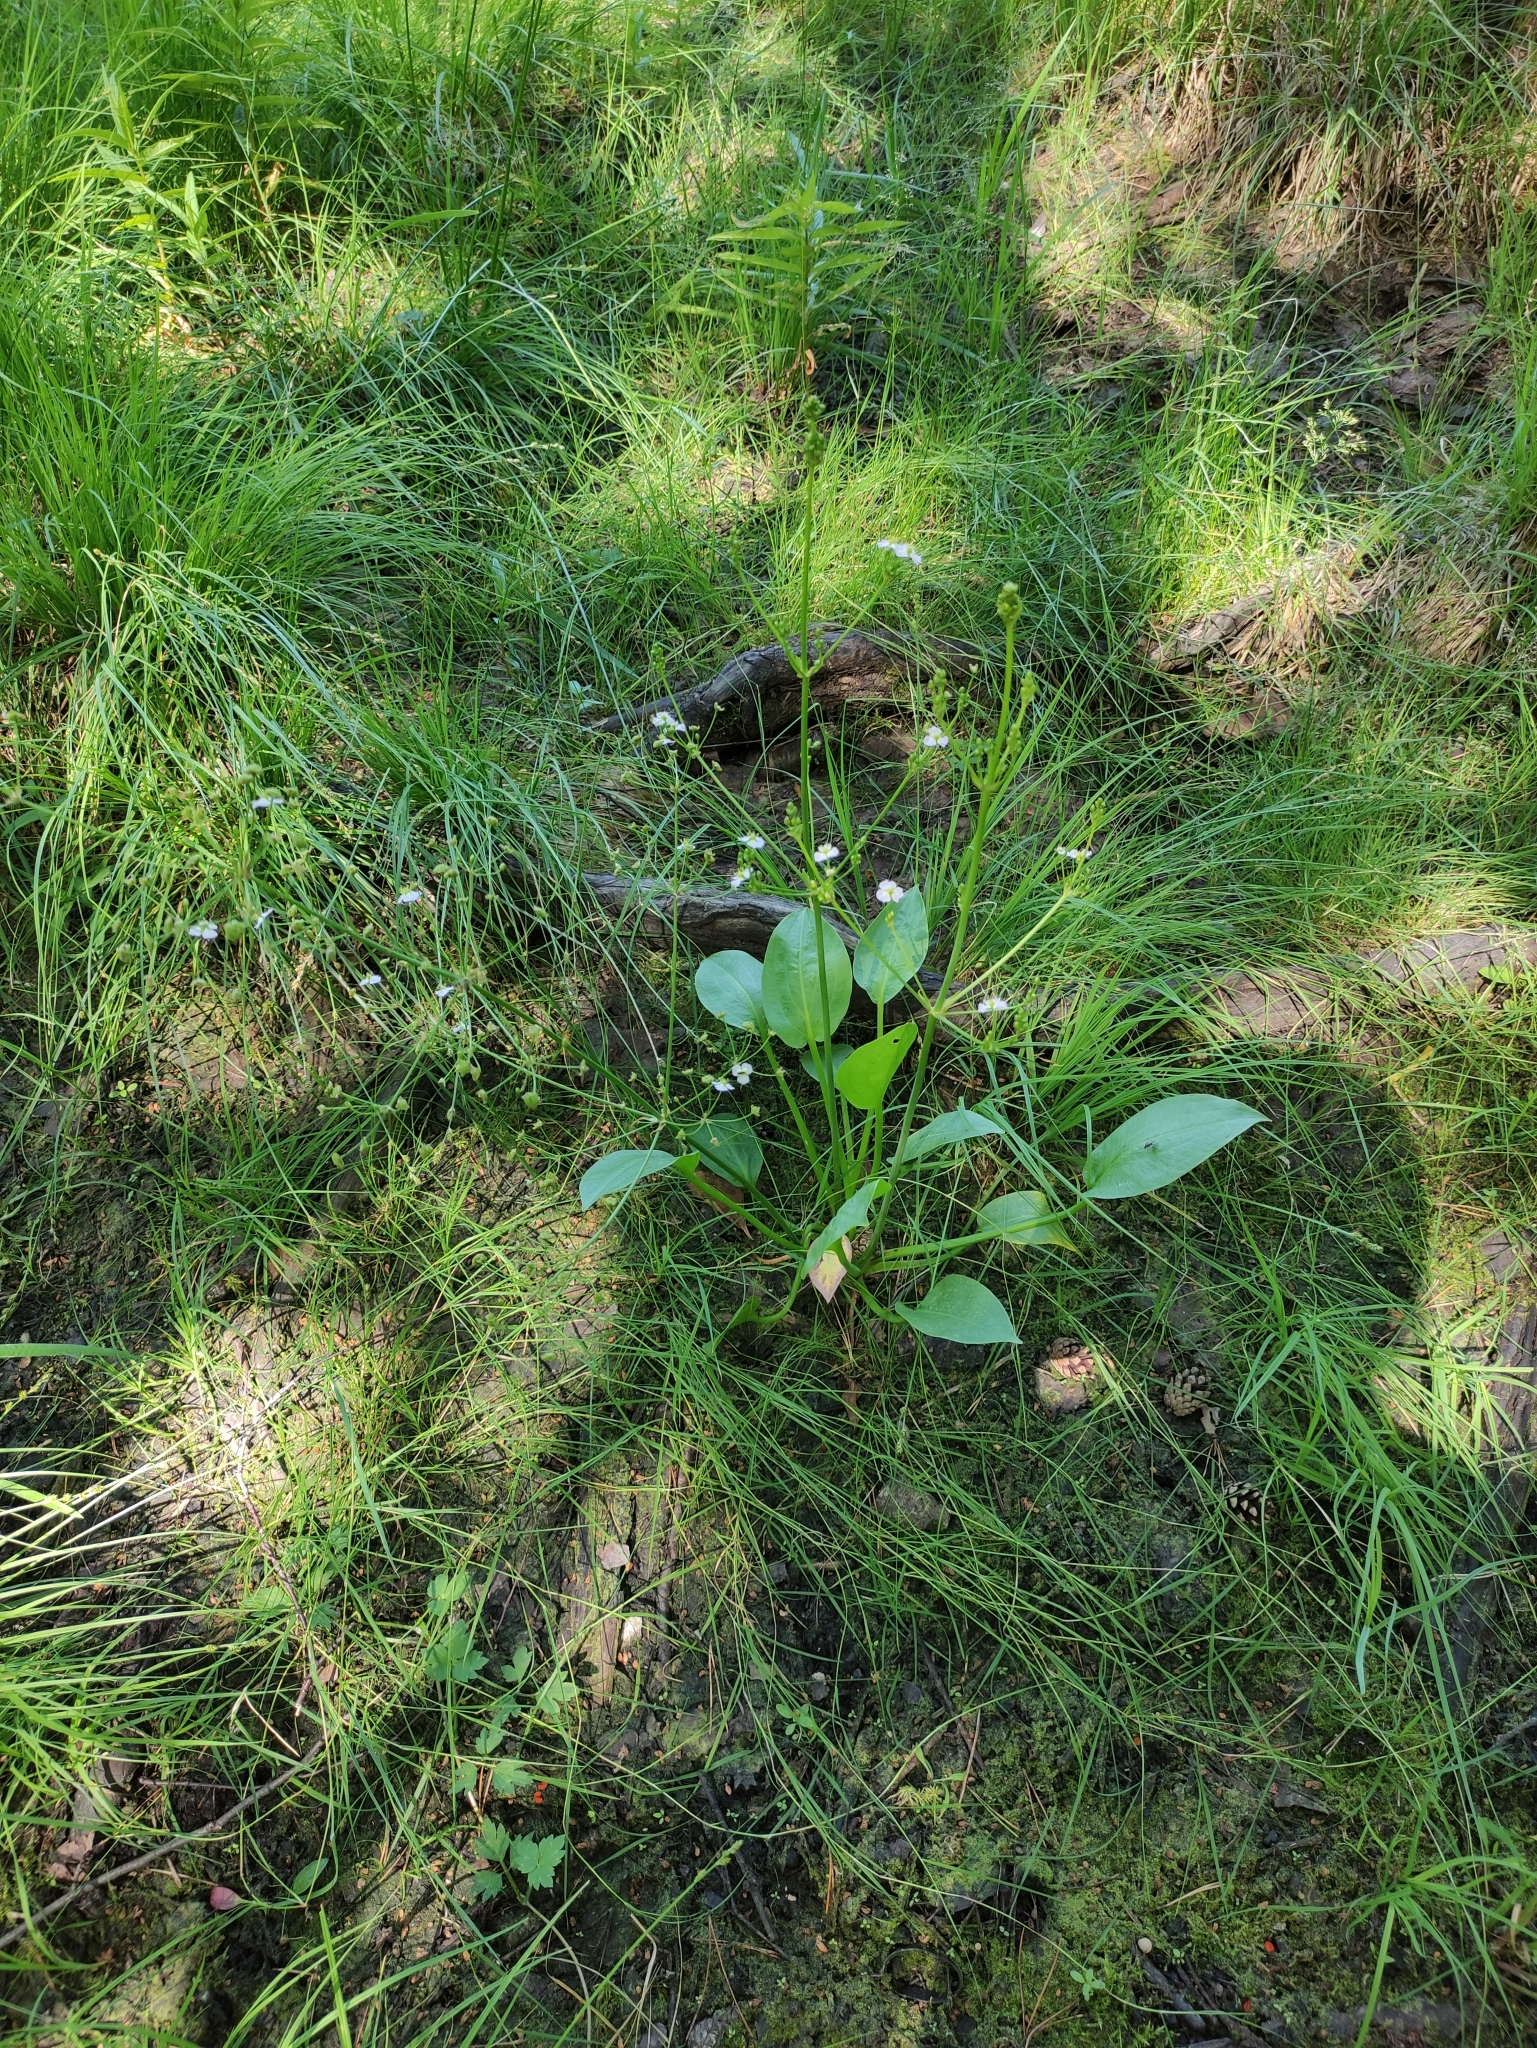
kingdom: Plantae
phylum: Tracheophyta
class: Liliopsida
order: Alismatales
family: Alismataceae
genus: Alisma
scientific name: Alisma plantago-aquatica
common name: Water-plantain
